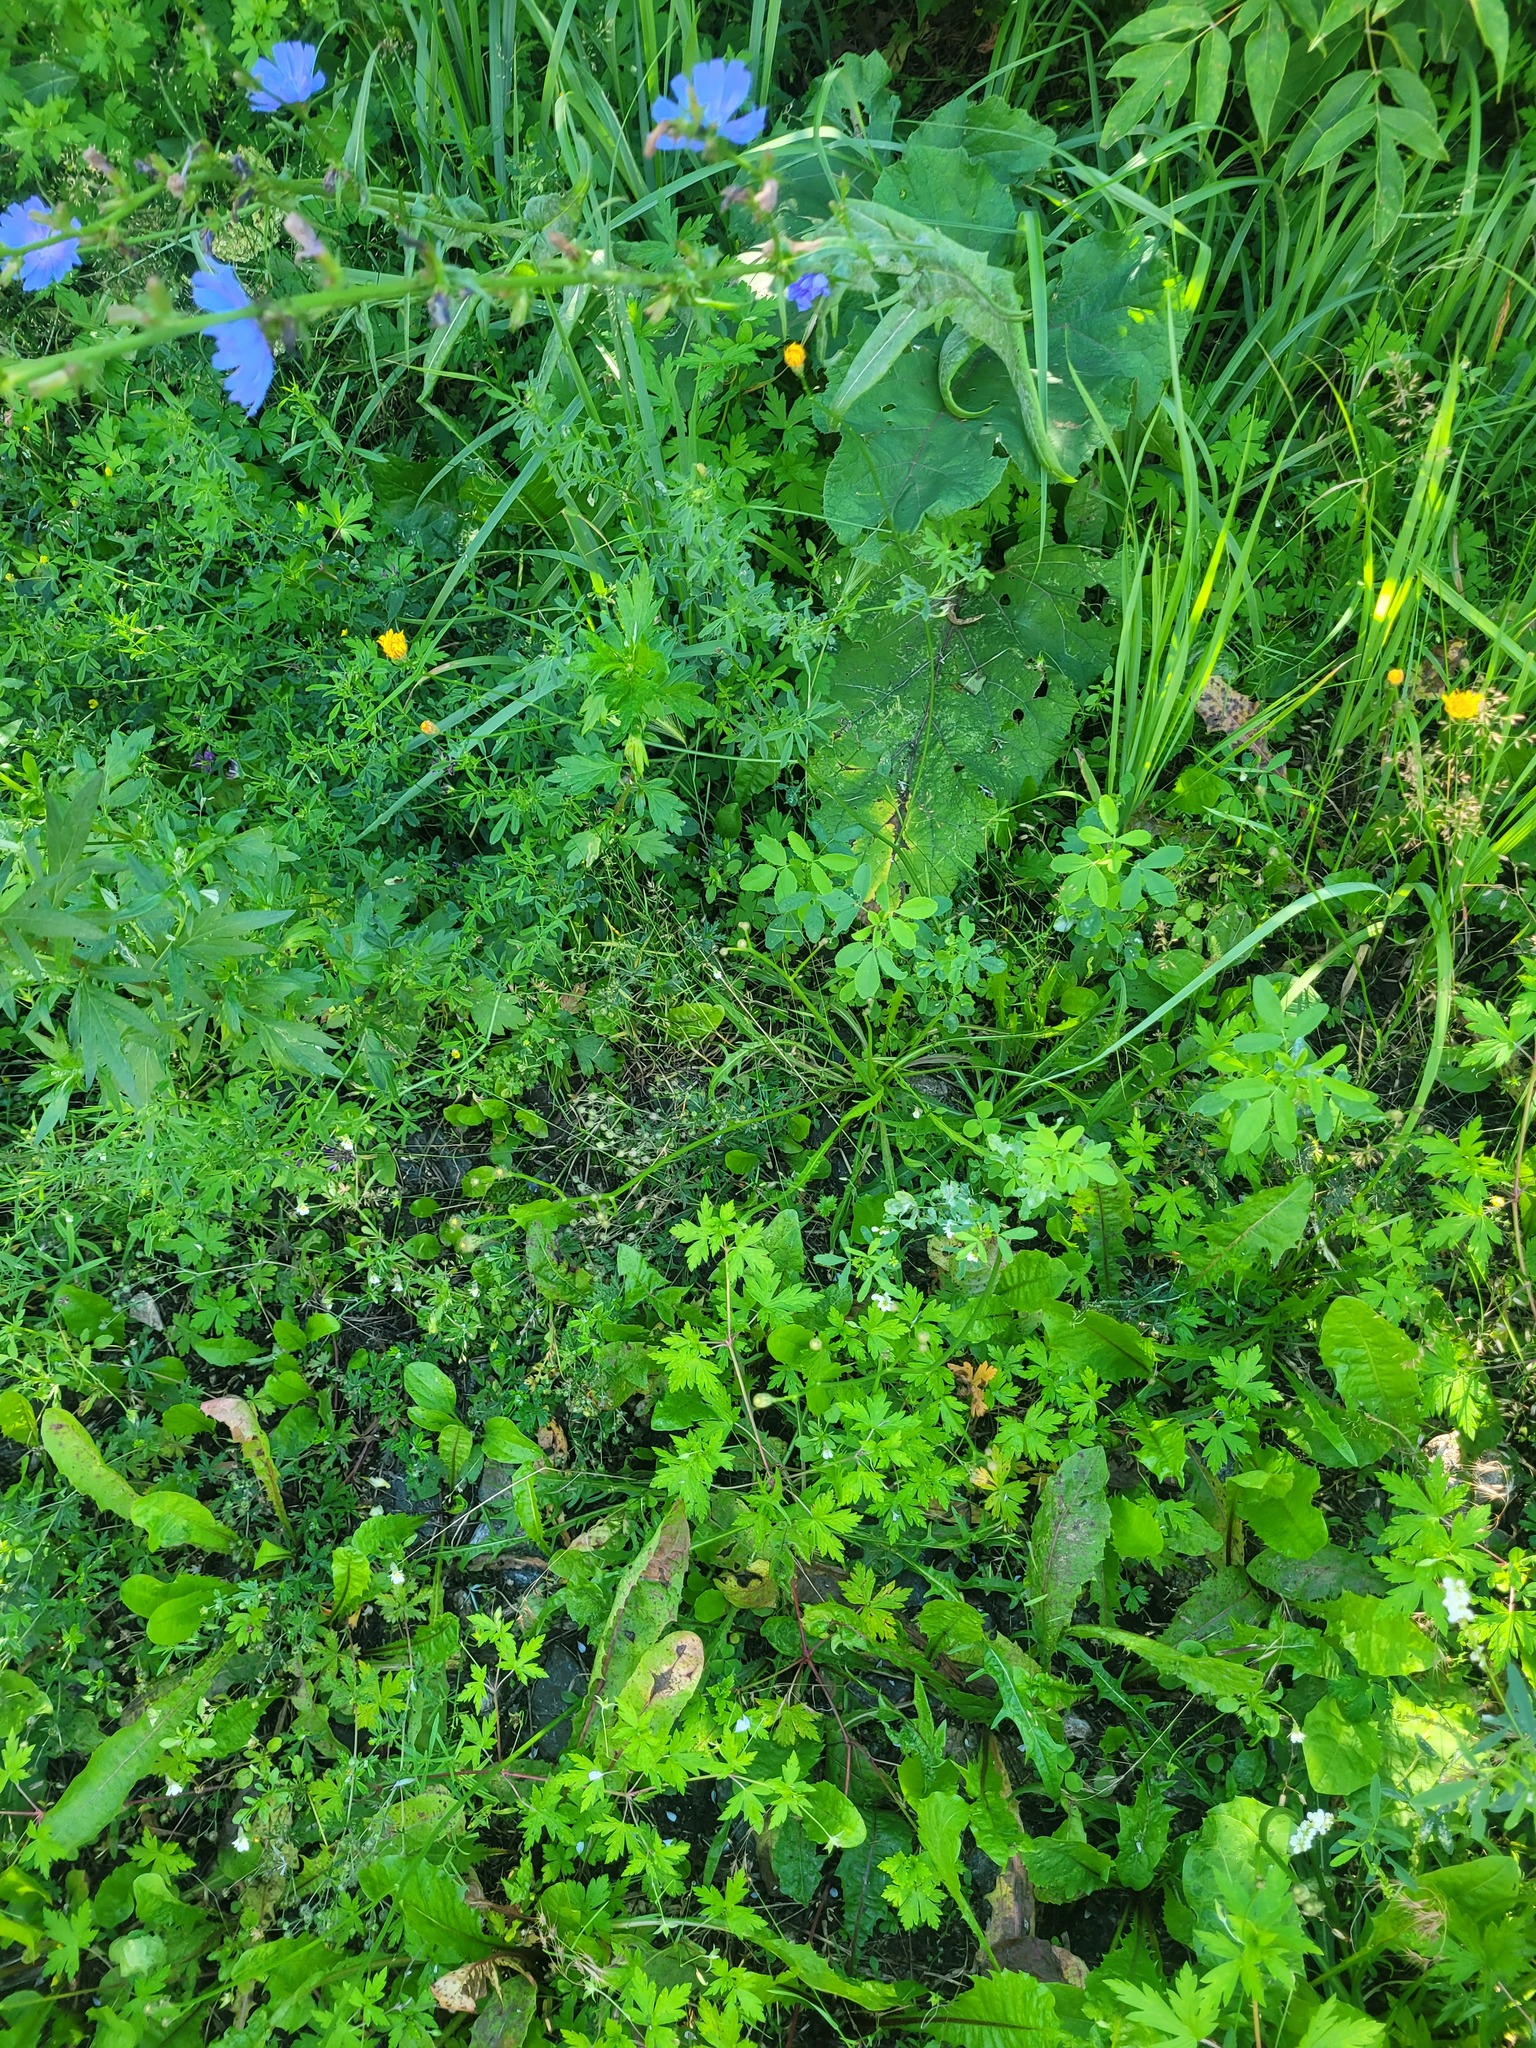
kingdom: Plantae
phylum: Tracheophyta
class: Magnoliopsida
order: Asterales
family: Asteraceae
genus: Scorzoneroides
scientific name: Scorzoneroides autumnalis
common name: Autumn hawkbit
